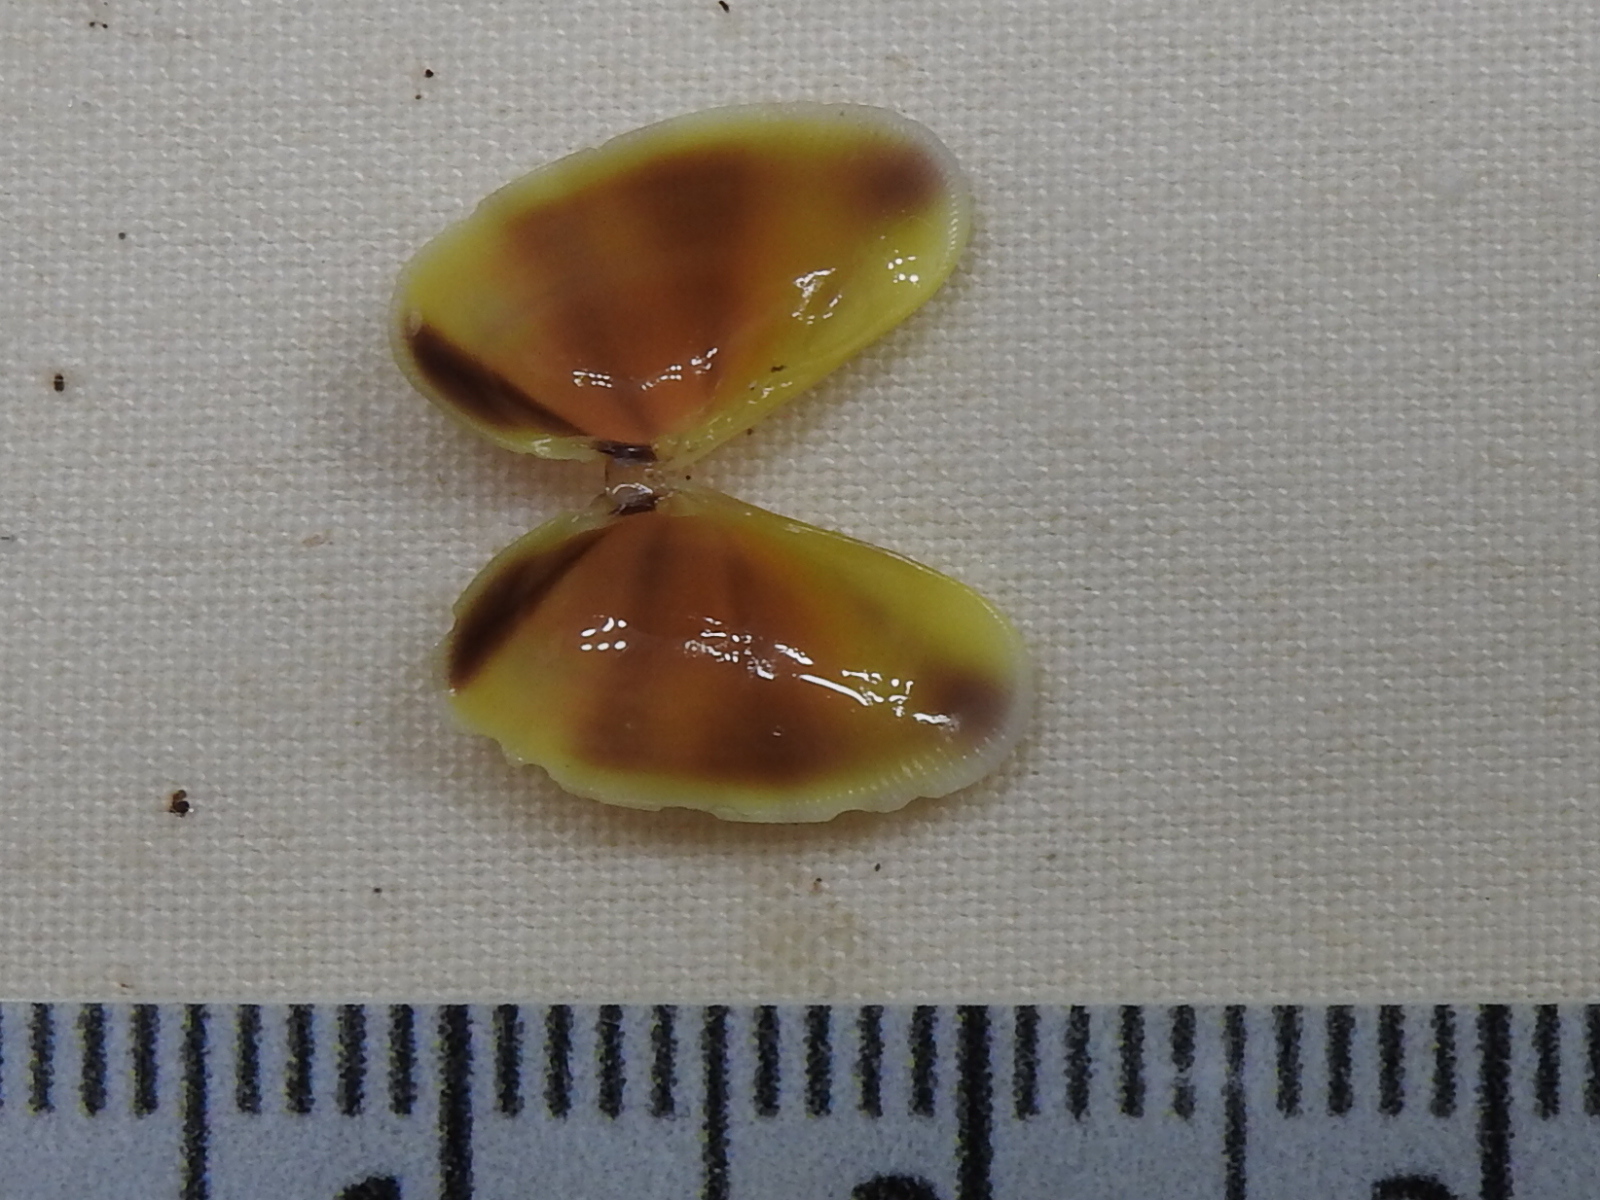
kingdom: Animalia
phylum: Mollusca
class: Bivalvia
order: Cardiida
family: Donacidae
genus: Donax
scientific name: Donax variabilis
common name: Butterfly shell
